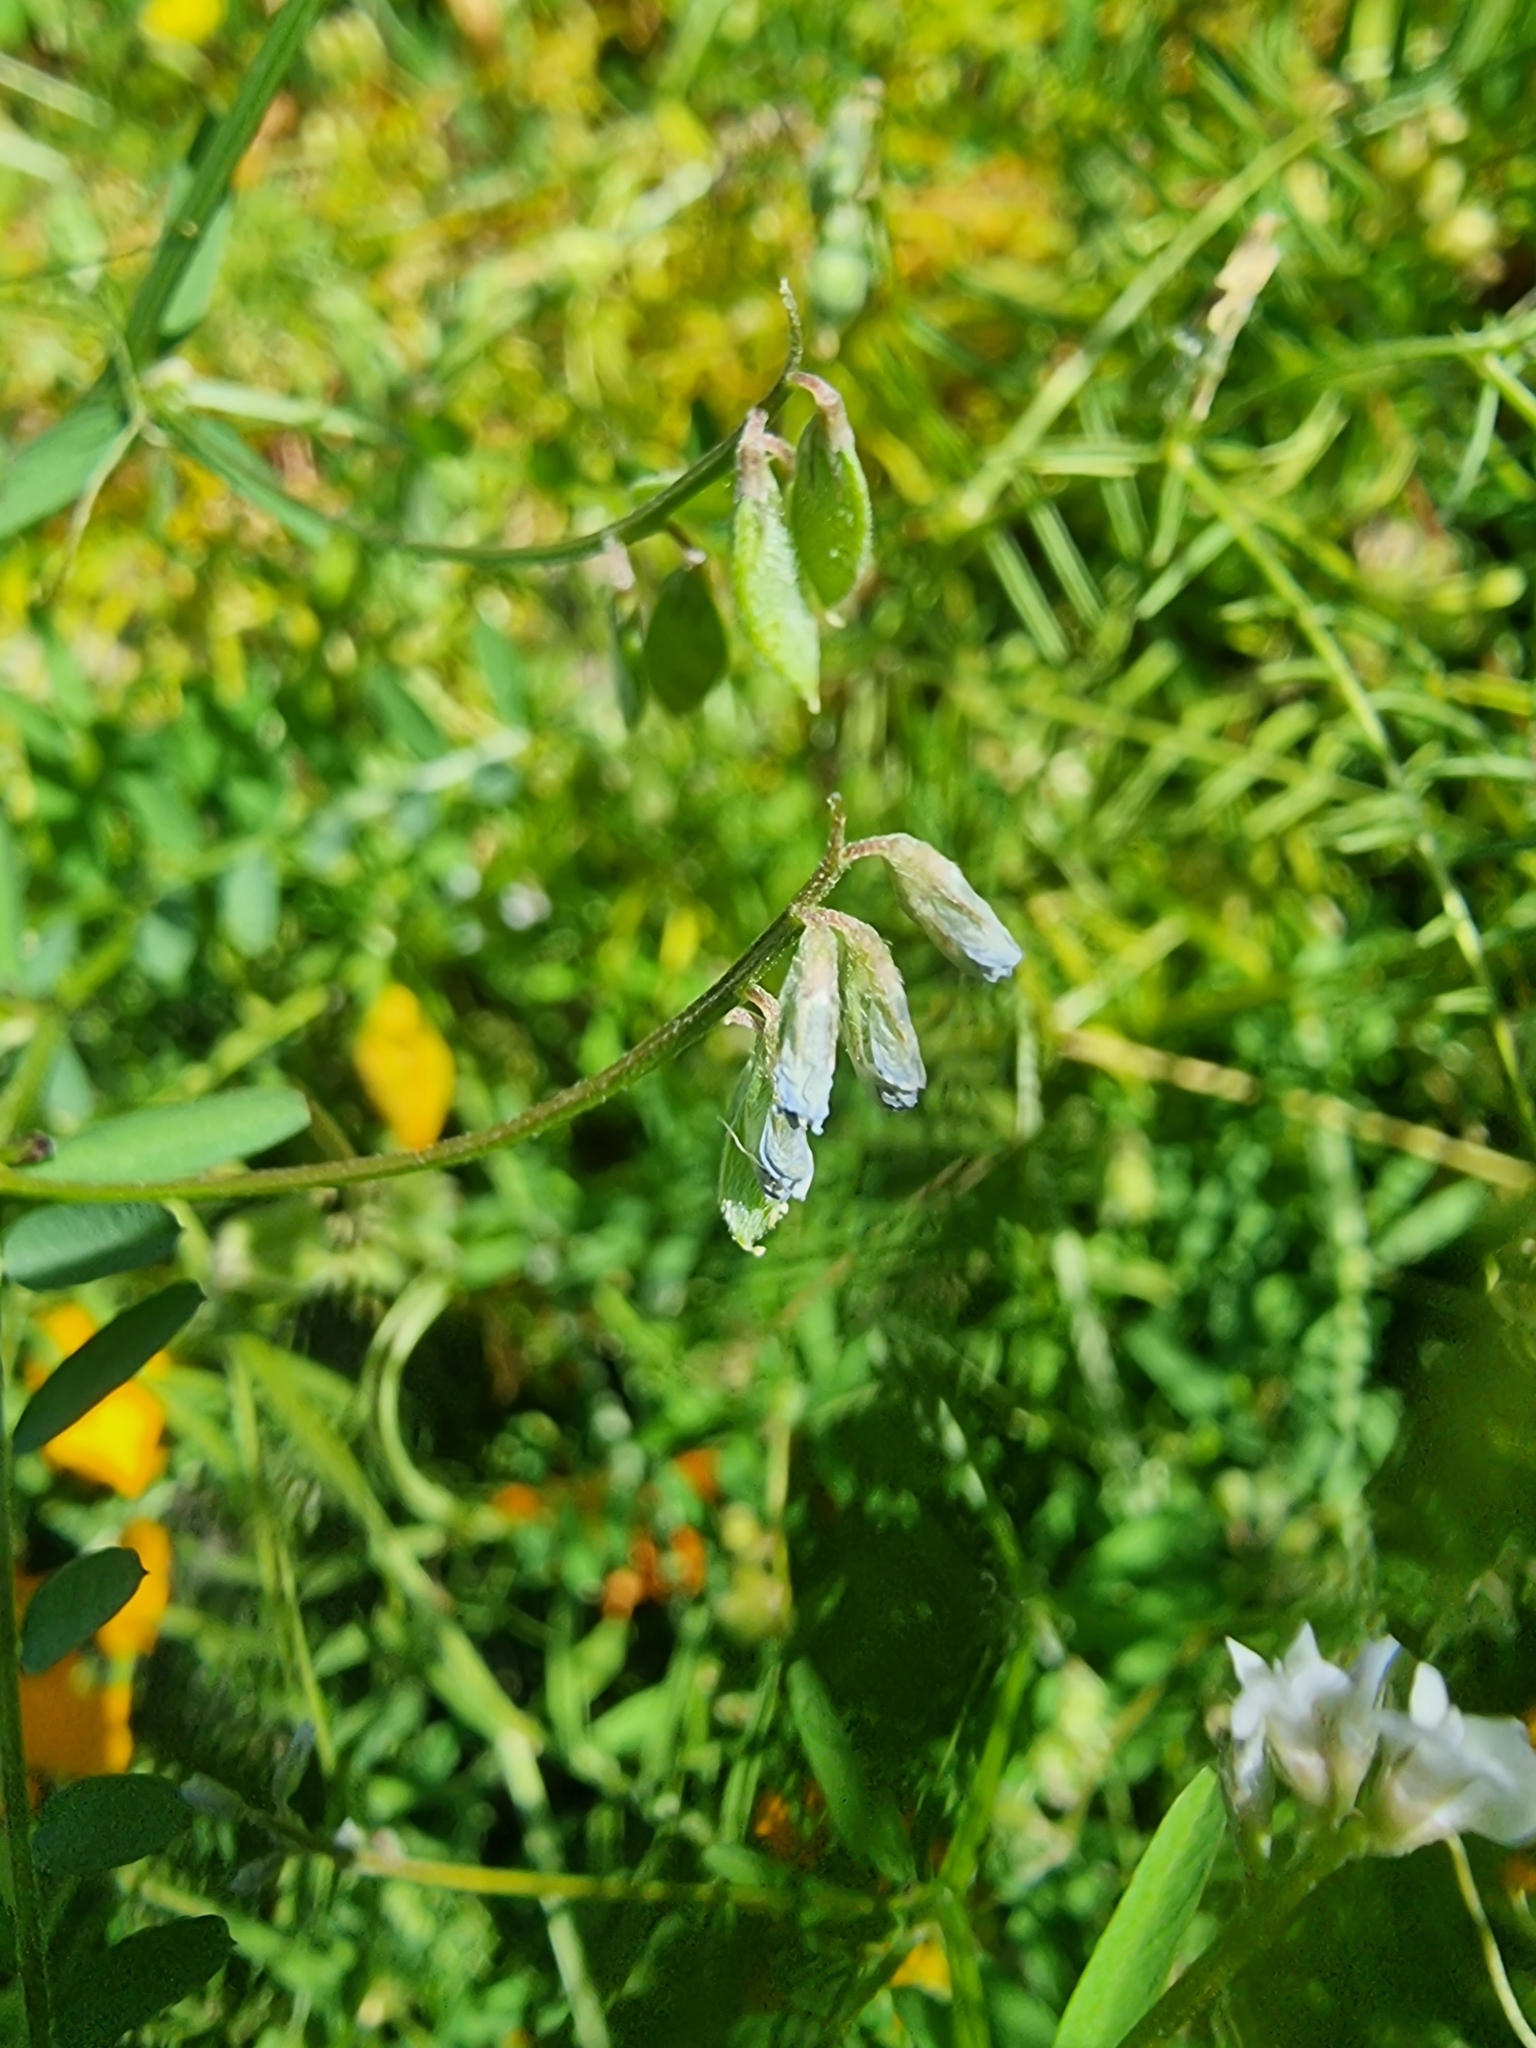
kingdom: Plantae
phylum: Tracheophyta
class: Magnoliopsida
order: Fabales
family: Fabaceae
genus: Vicia
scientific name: Vicia hirsuta
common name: Tiny vetch
